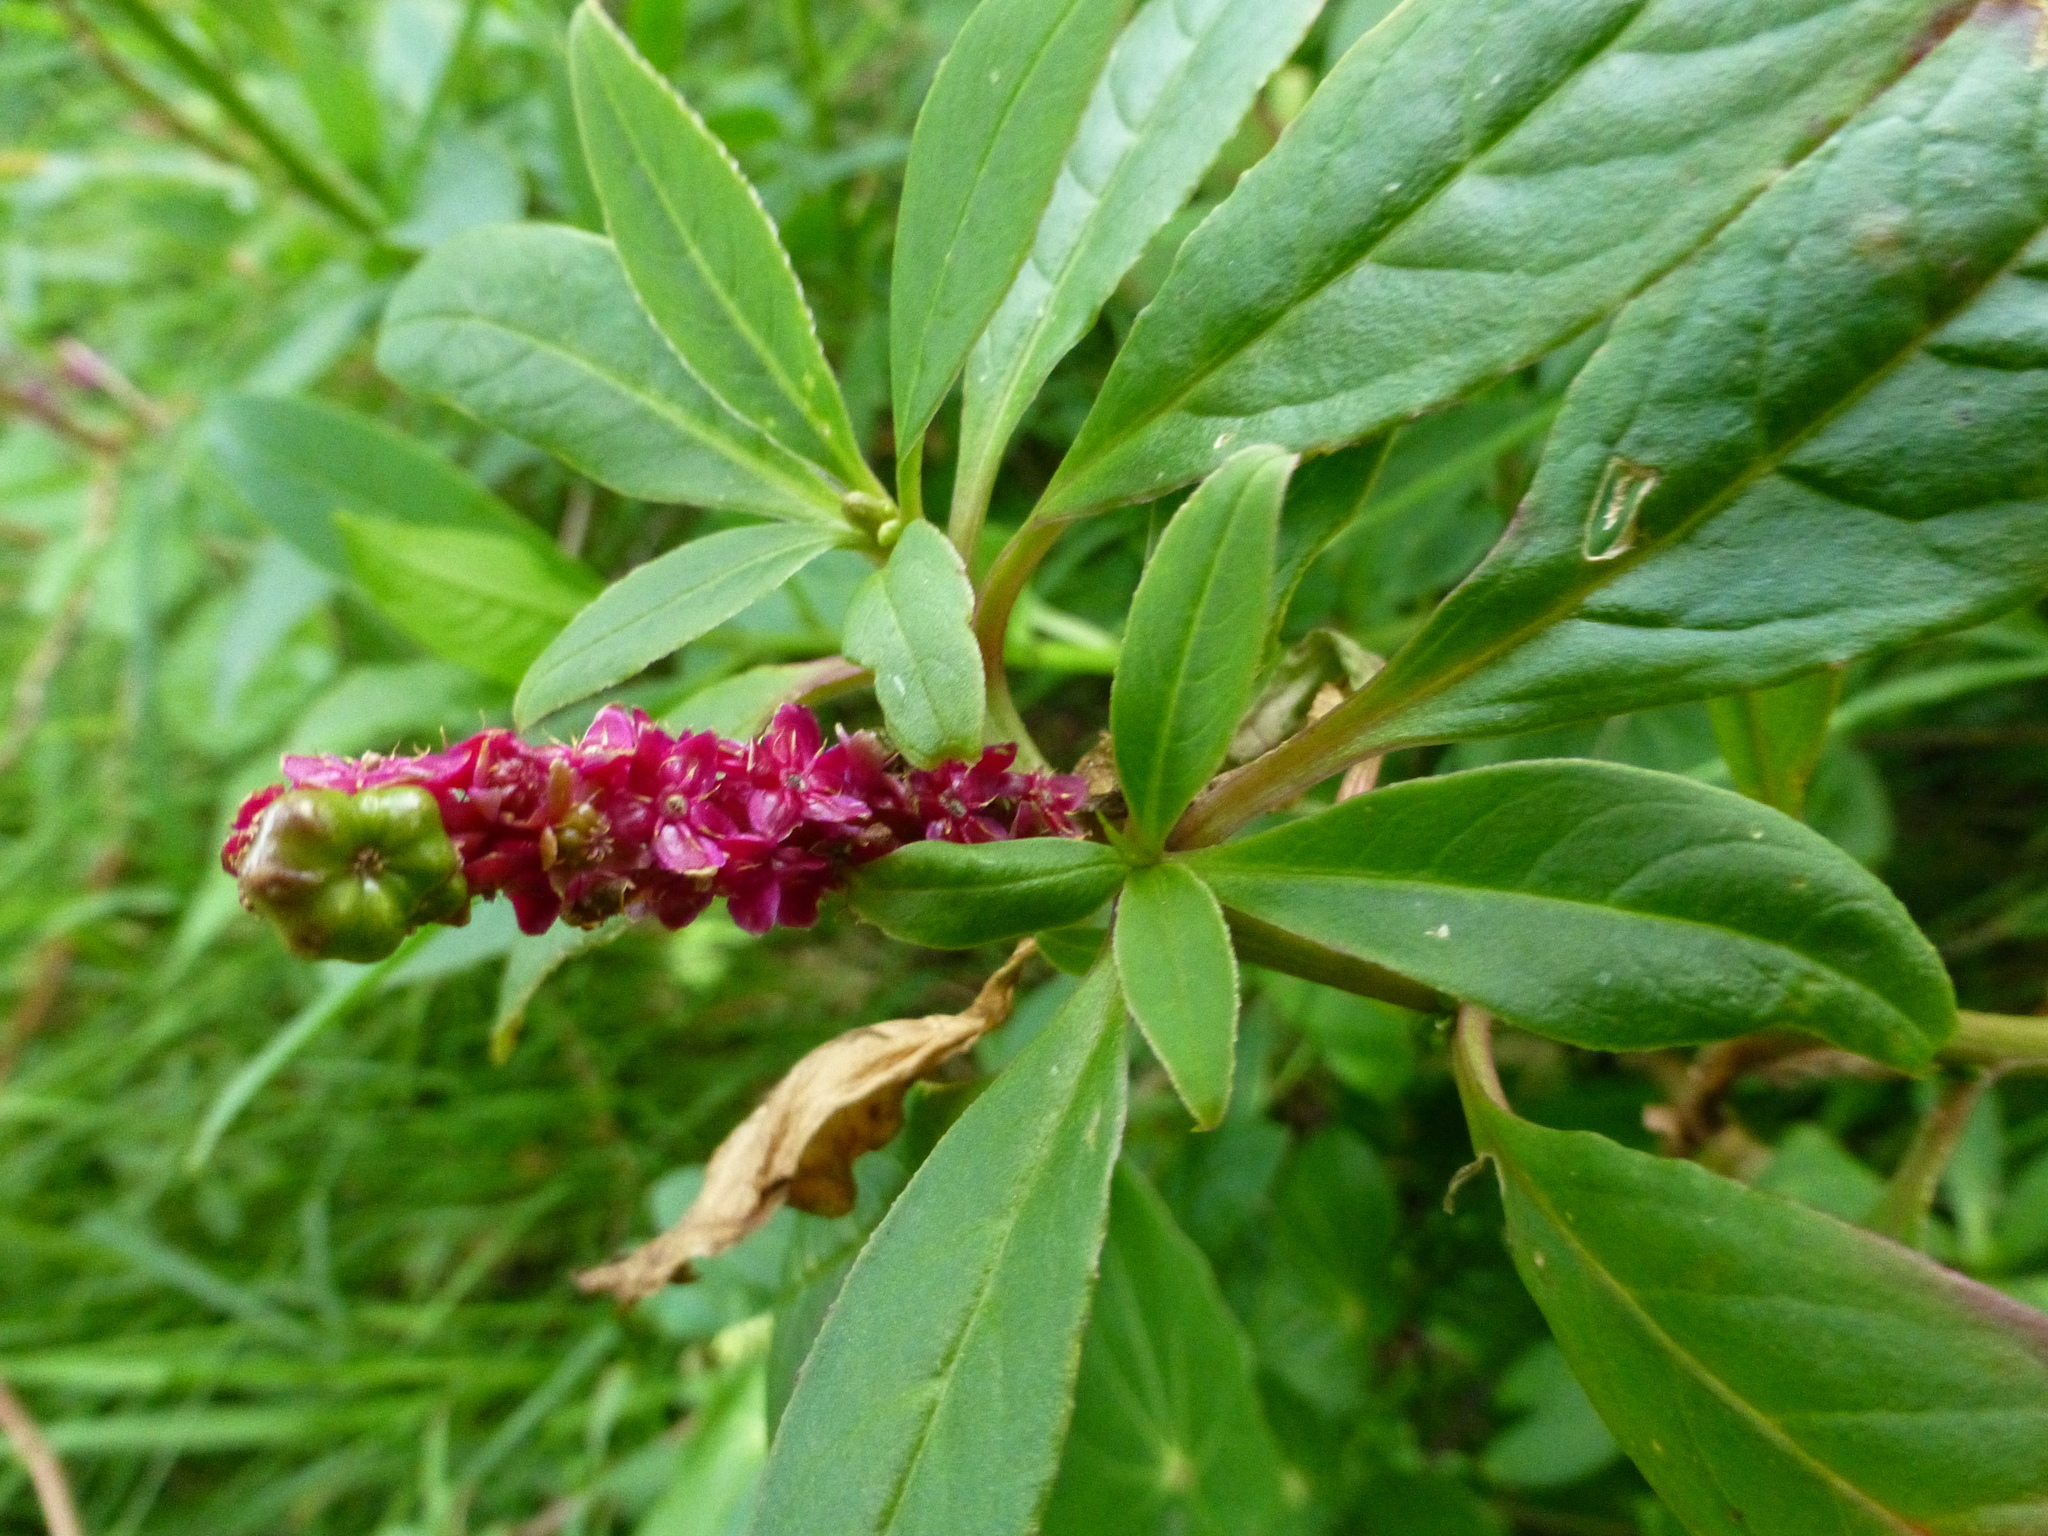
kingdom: Plantae
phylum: Tracheophyta
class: Magnoliopsida
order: Caryophyllales
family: Phytolaccaceae
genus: Phytolacca
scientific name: Phytolacca icosandra
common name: Button pokeweed
